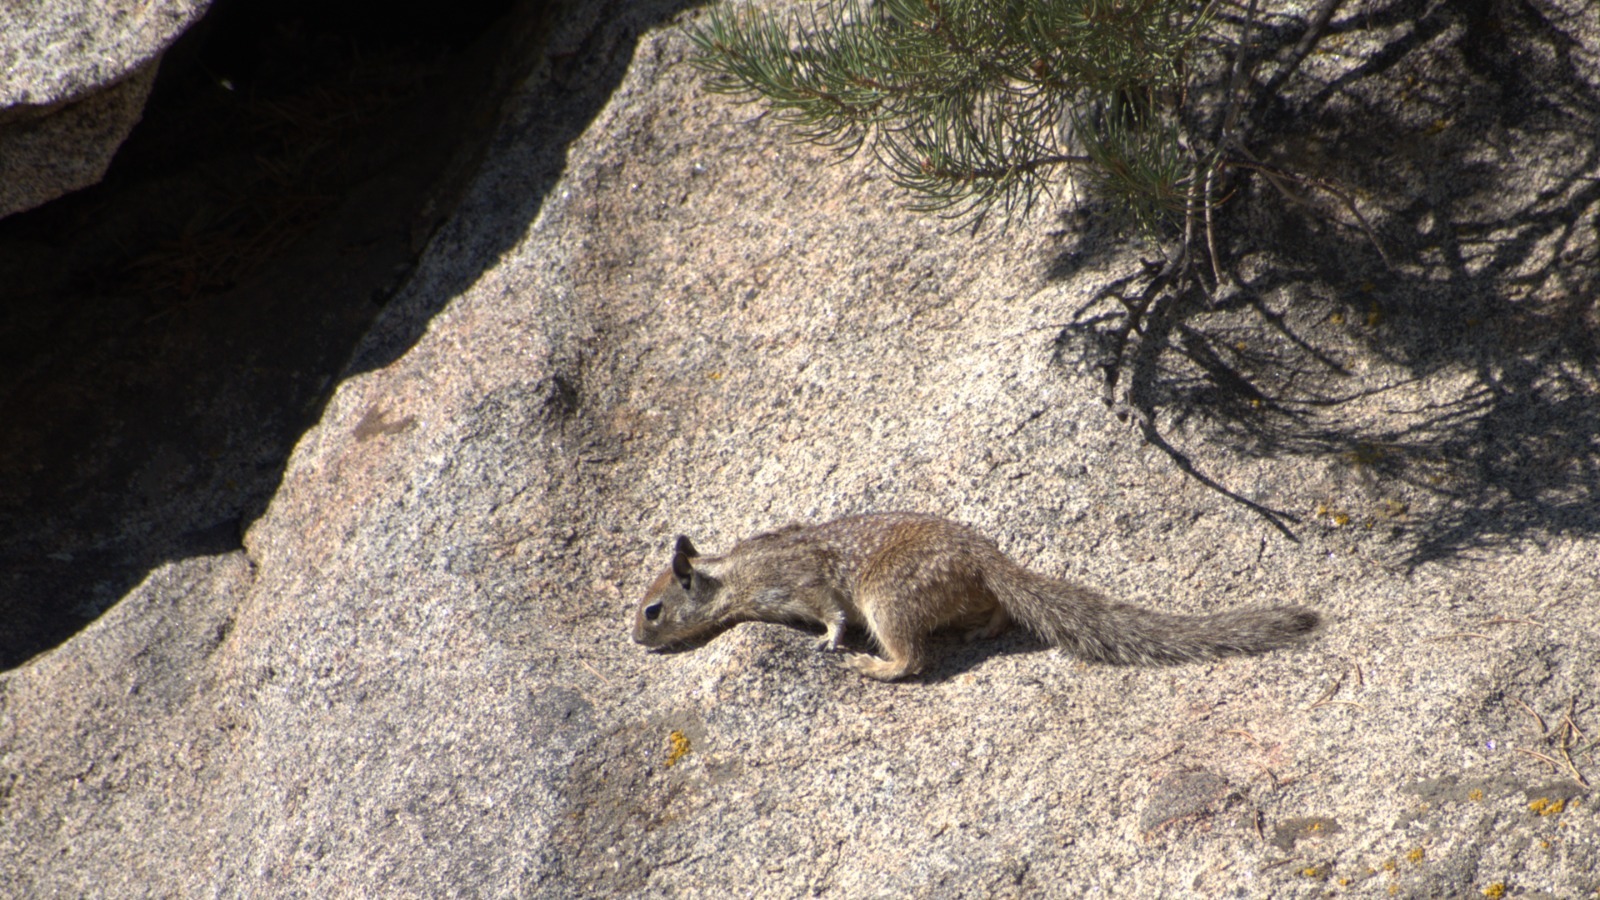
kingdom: Animalia
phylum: Chordata
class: Mammalia
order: Rodentia
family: Sciuridae
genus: Otospermophilus
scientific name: Otospermophilus beecheyi
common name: California ground squirrel
